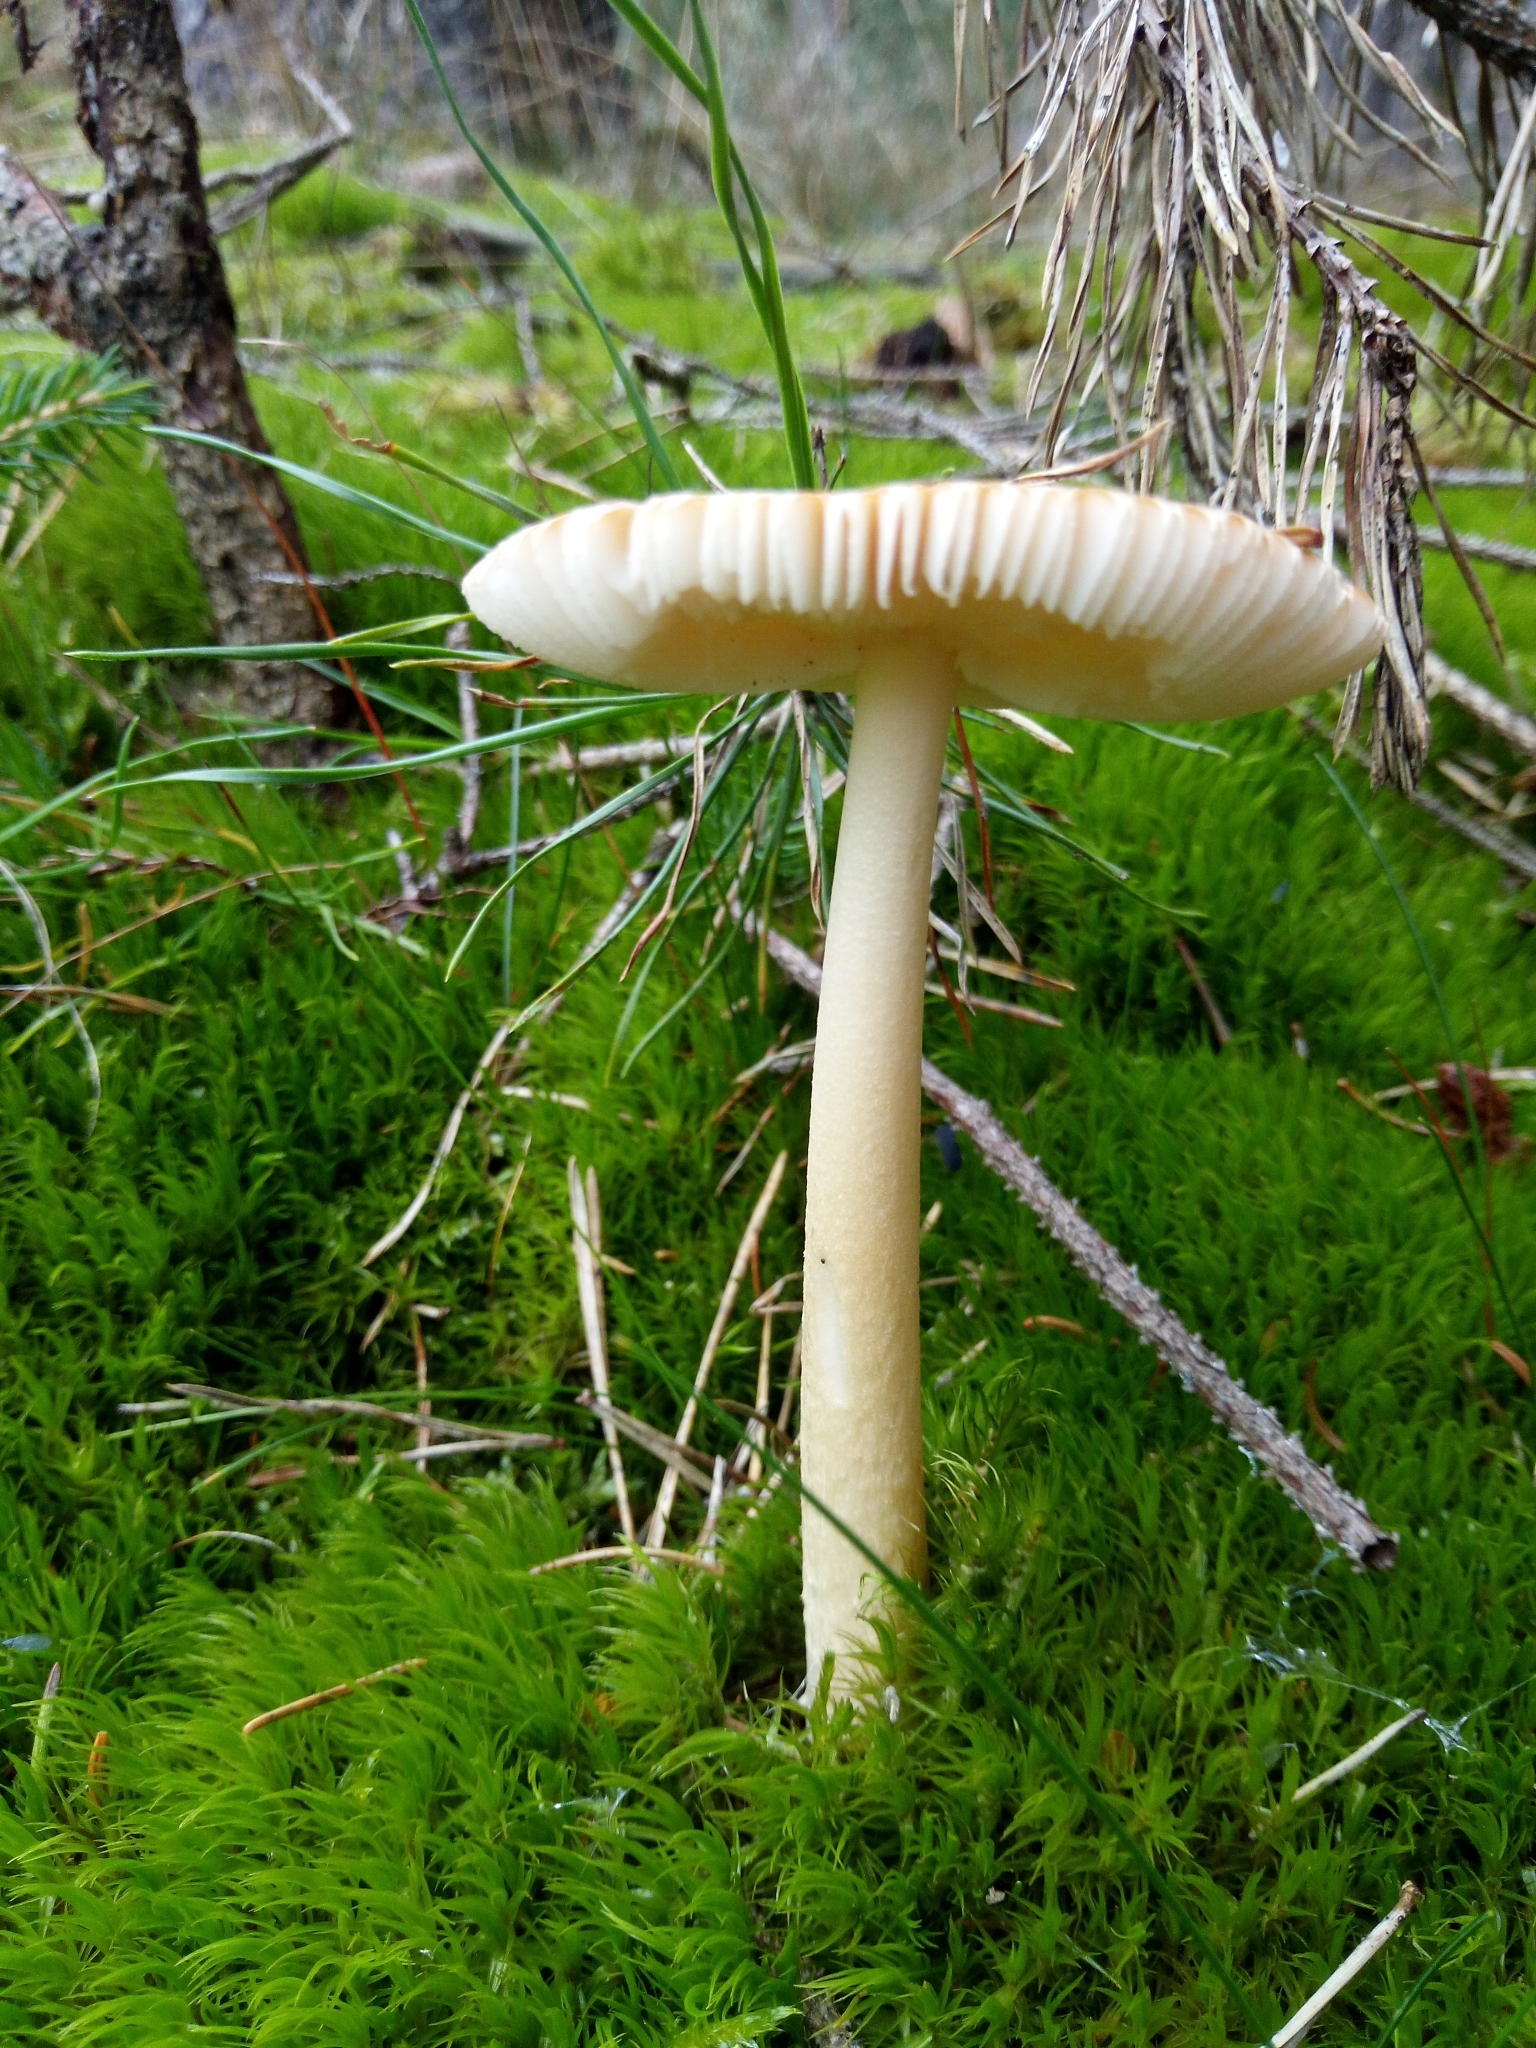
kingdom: Fungi
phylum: Basidiomycota
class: Agaricomycetes
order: Agaricales
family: Amanitaceae
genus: Amanita
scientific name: Amanita fulva
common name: Tawny grisette
